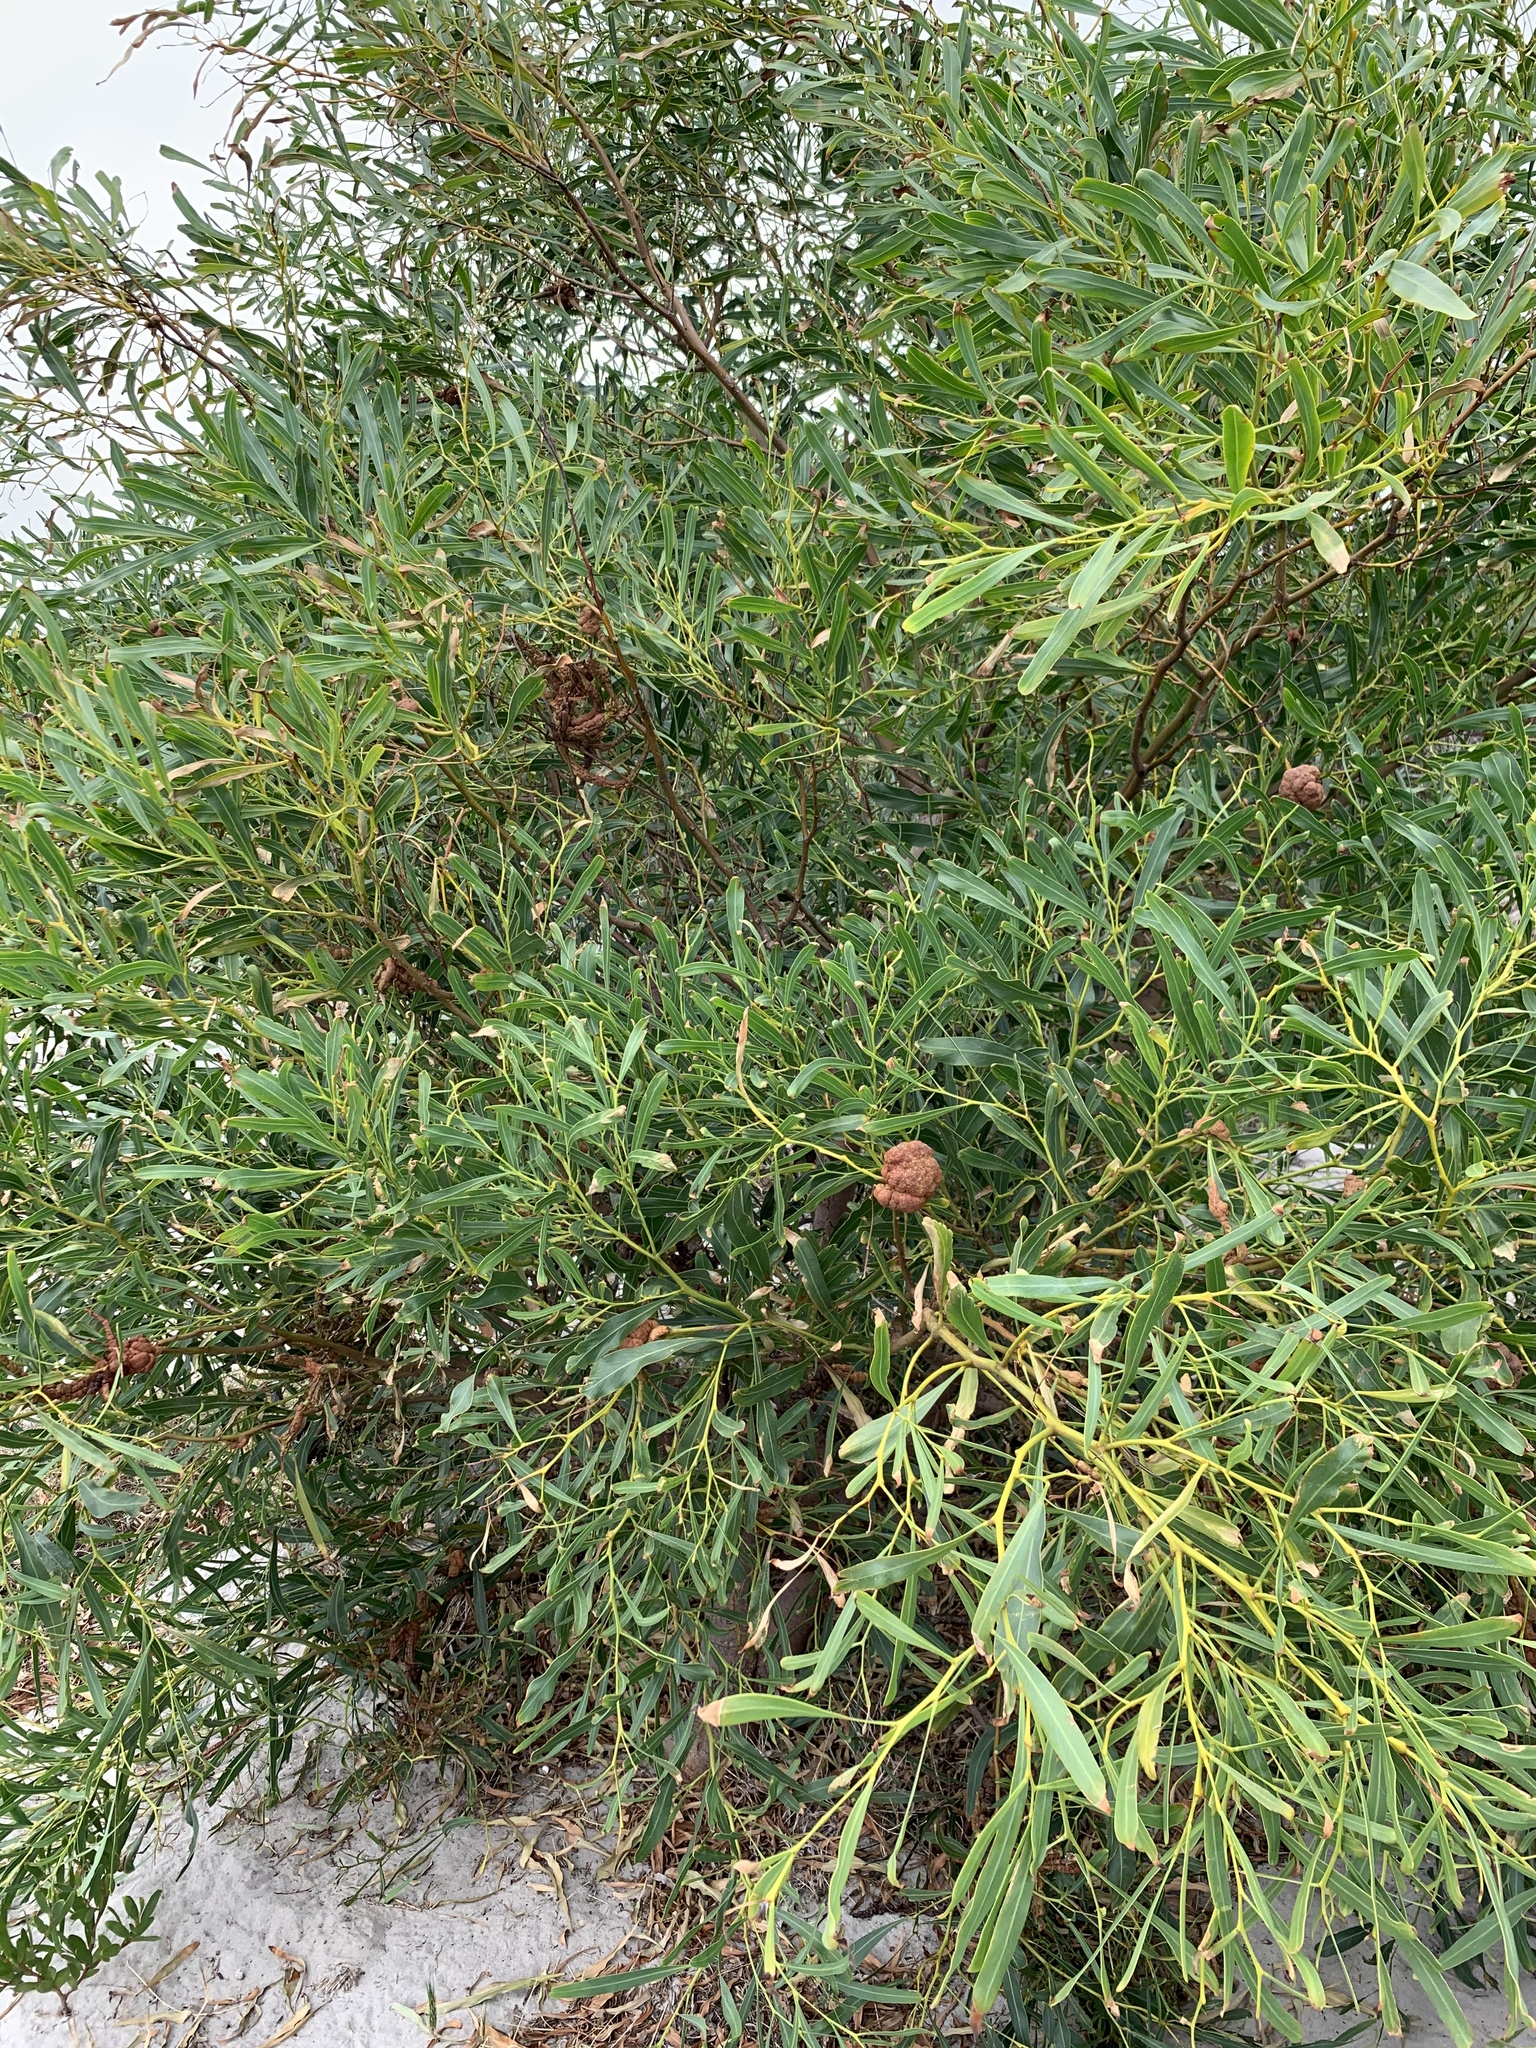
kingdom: Plantae
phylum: Tracheophyta
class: Magnoliopsida
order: Fabales
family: Fabaceae
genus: Acacia
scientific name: Acacia saligna
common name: Orange wattle
